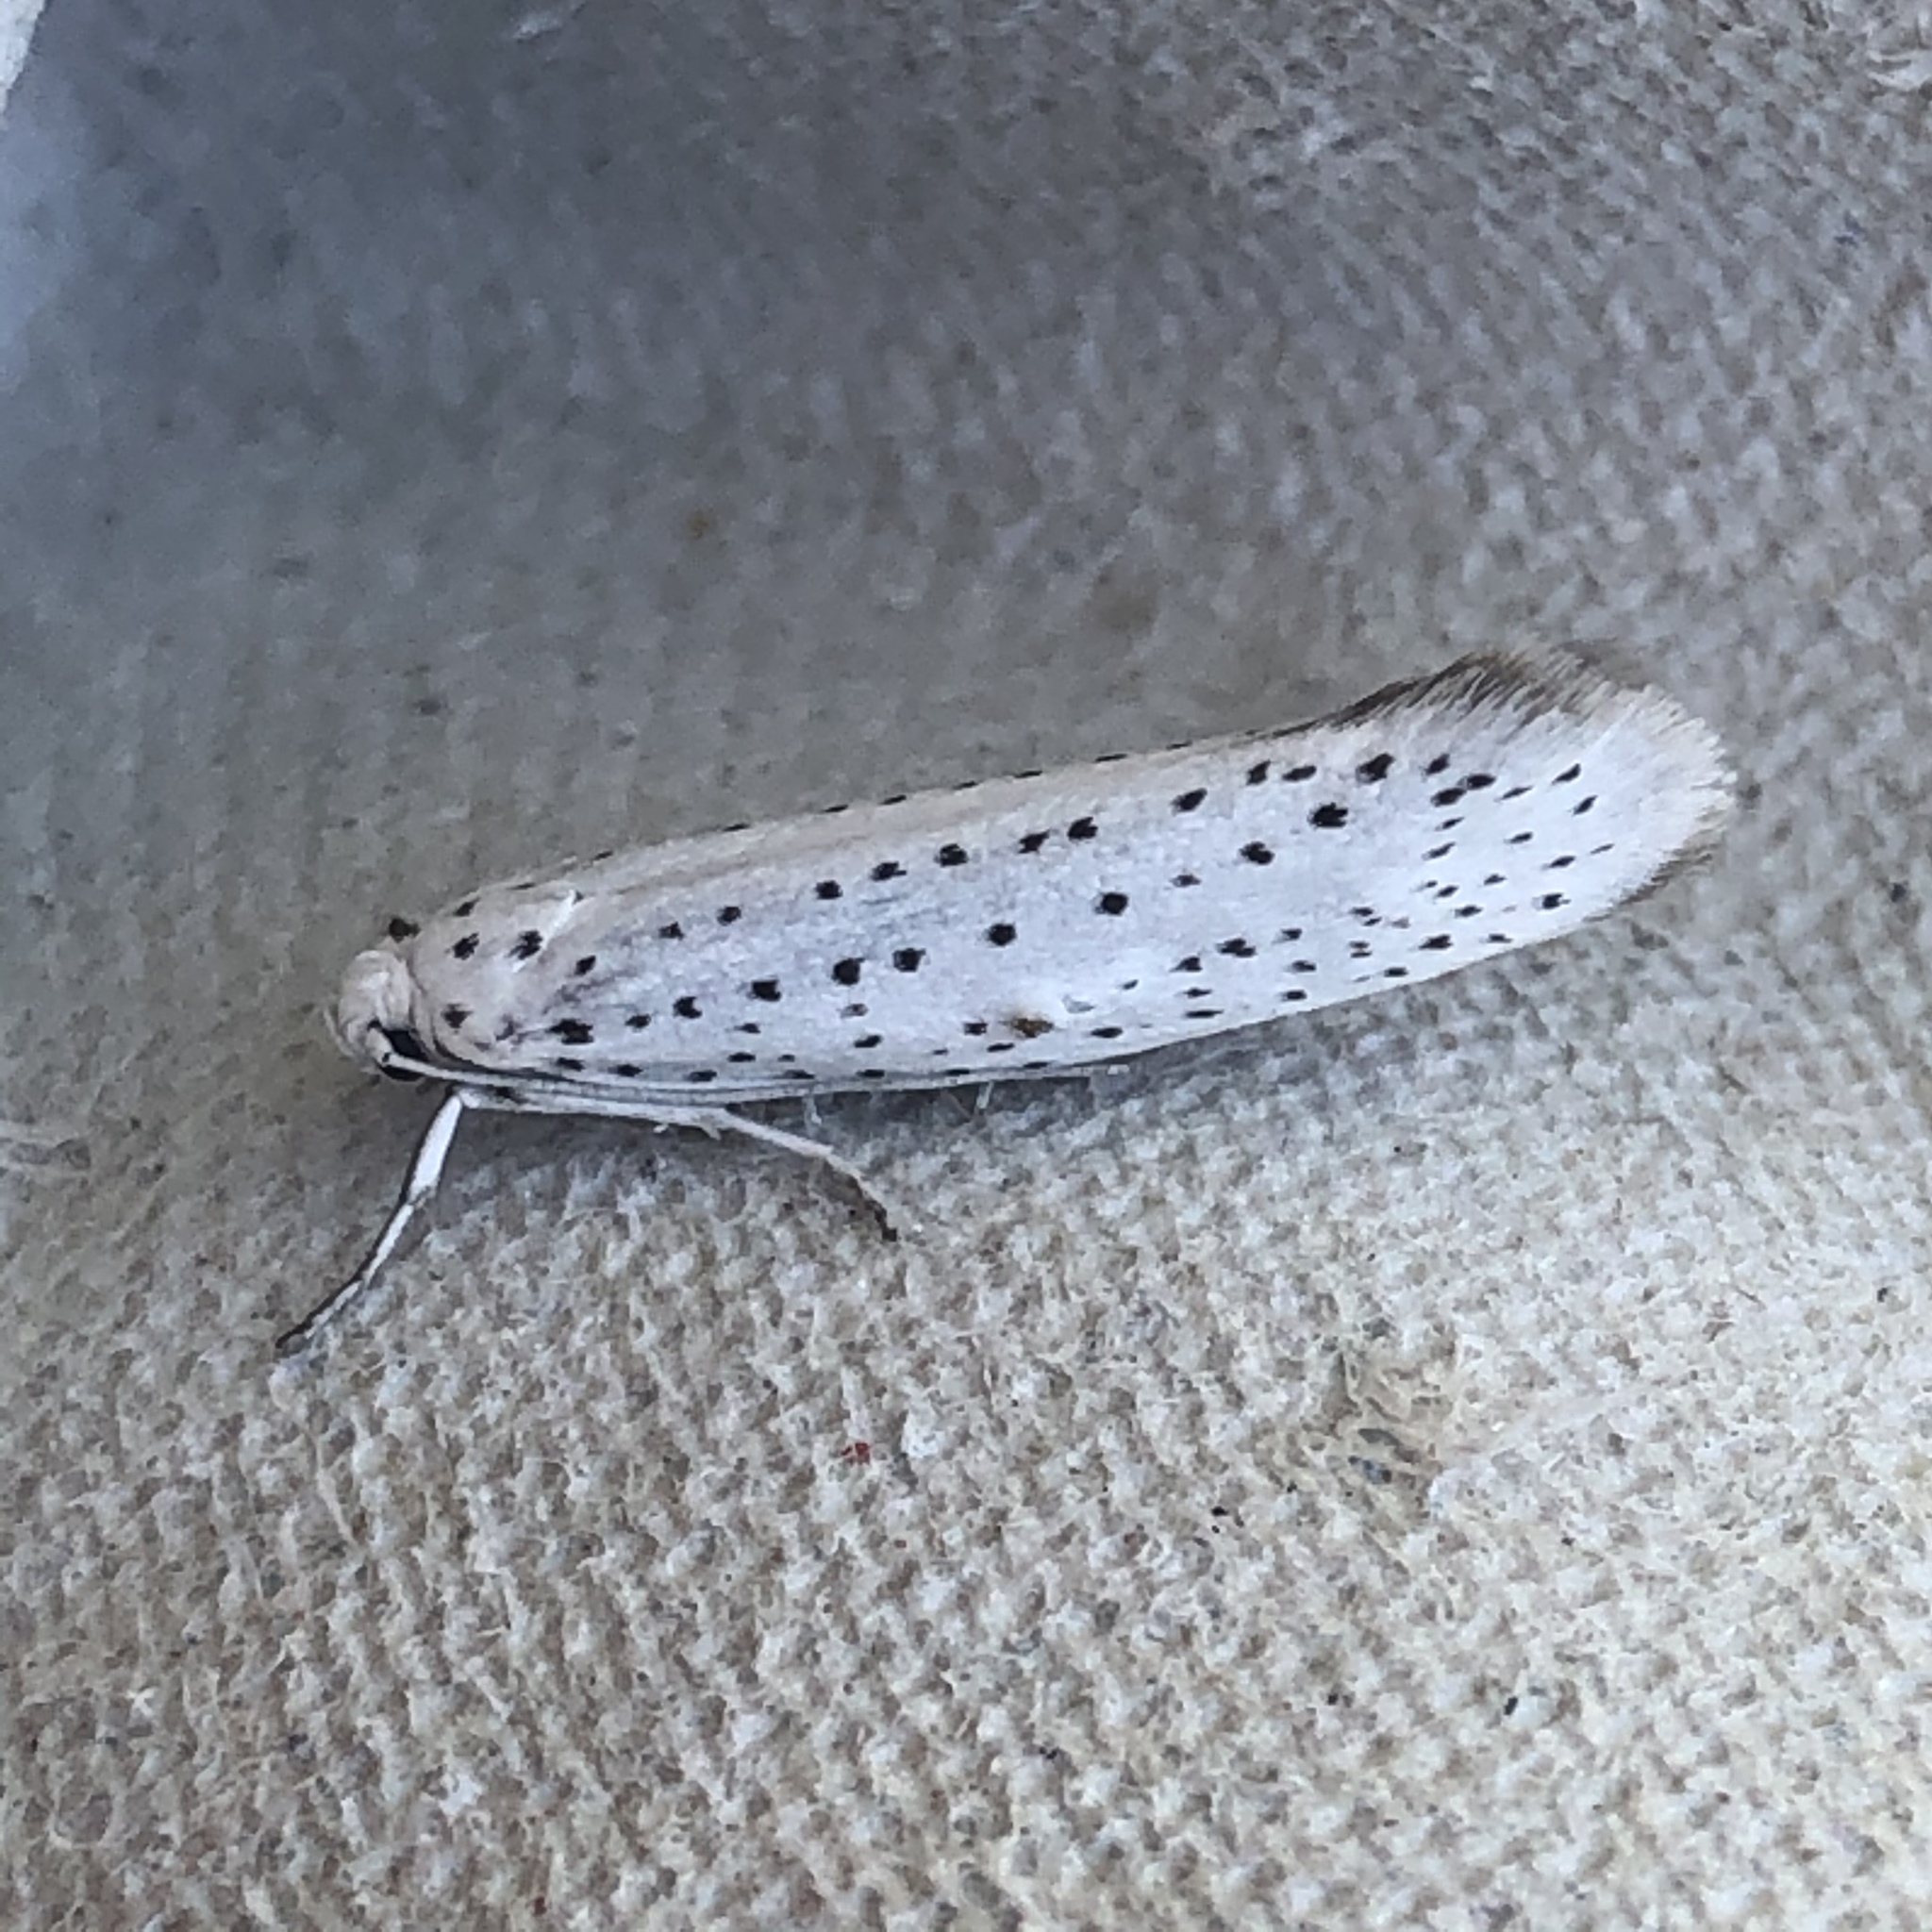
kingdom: Animalia
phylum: Arthropoda
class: Insecta
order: Lepidoptera
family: Yponomeutidae
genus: Yponomeuta
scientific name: Yponomeuta evonymella
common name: Bird-cherry ermine
